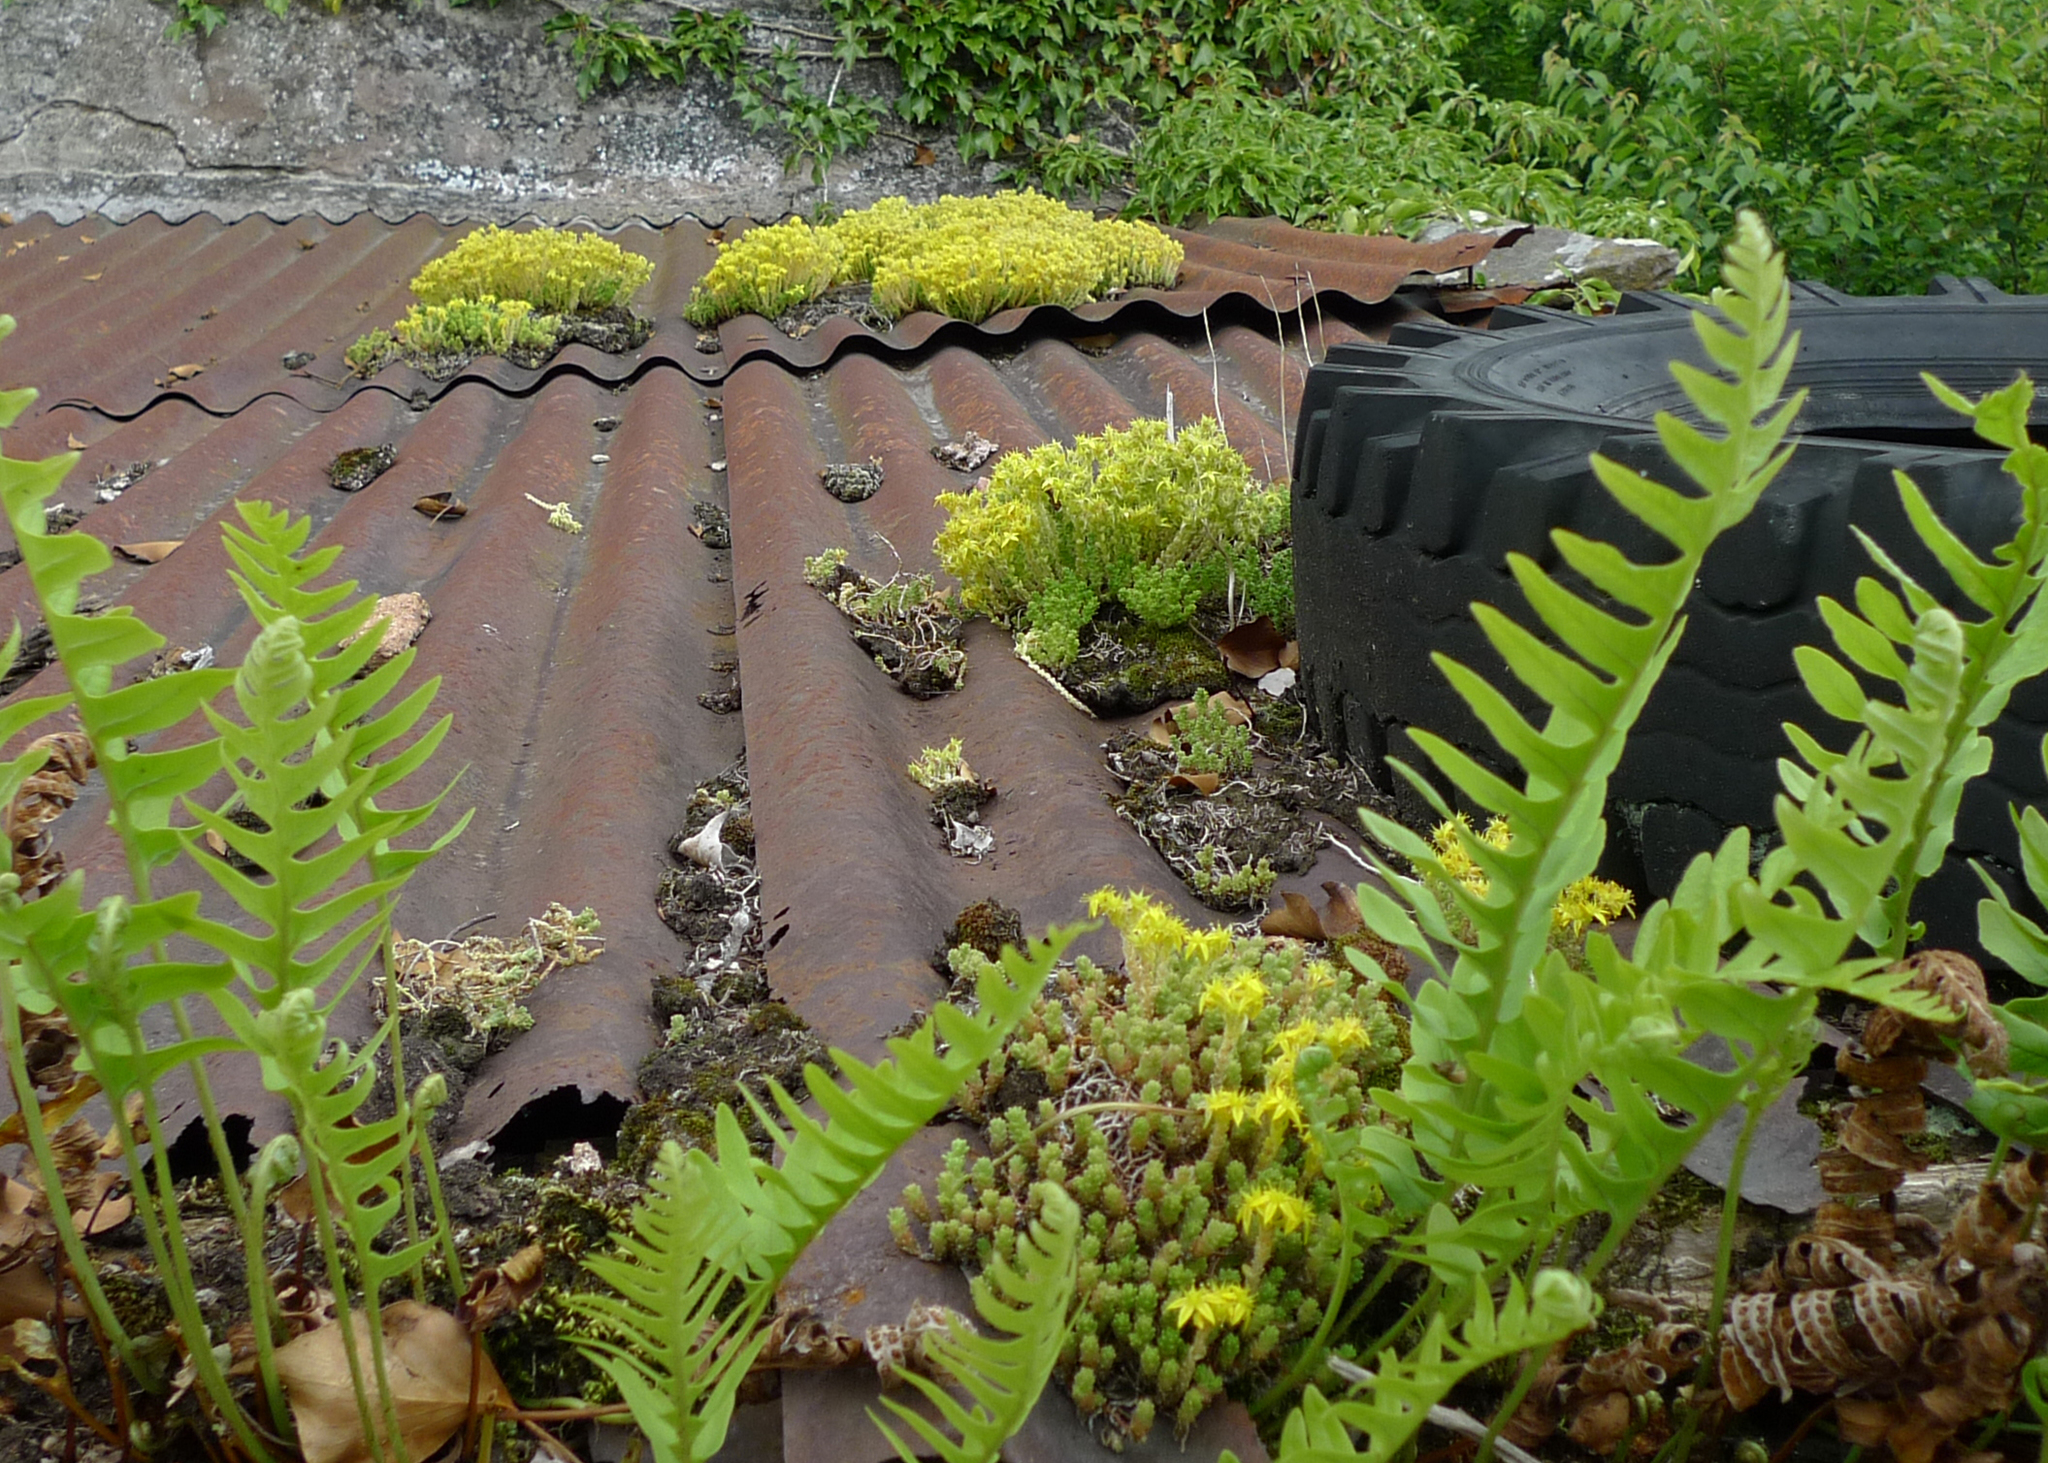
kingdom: Plantae
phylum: Tracheophyta
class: Magnoliopsida
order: Saxifragales
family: Crassulaceae
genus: Sedum
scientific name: Sedum acre
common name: Biting stonecrop
